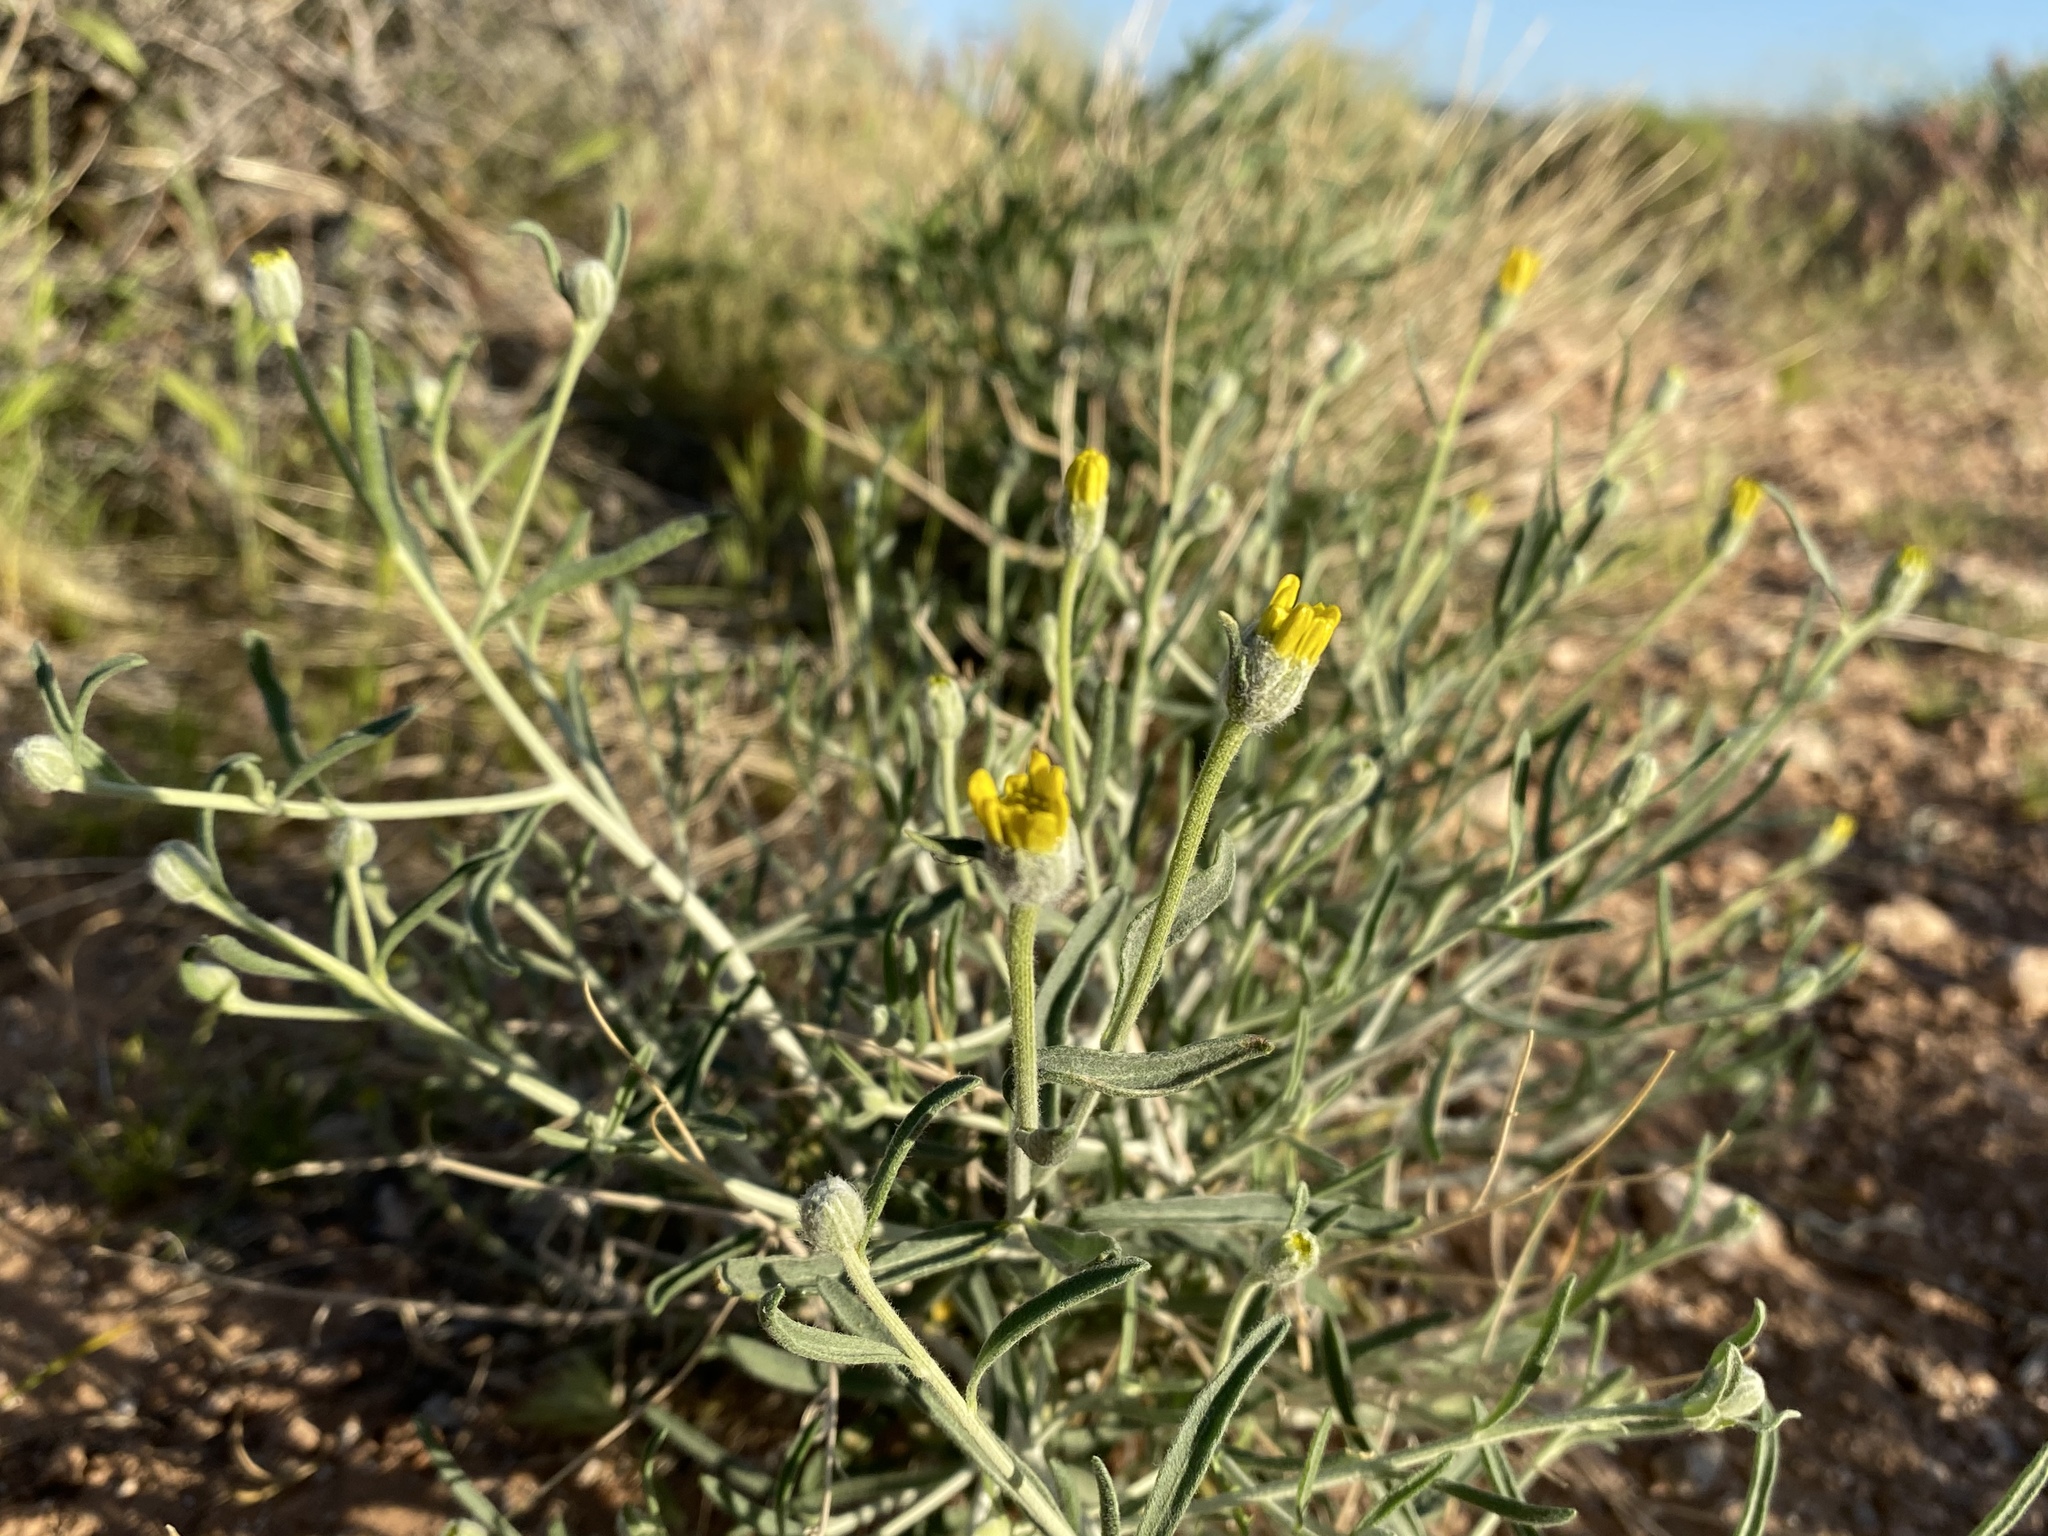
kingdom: Plantae
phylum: Tracheophyta
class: Magnoliopsida
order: Asterales
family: Asteraceae
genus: Psilostrophe
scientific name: Psilostrophe cooperi
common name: White-stem paper-flower
